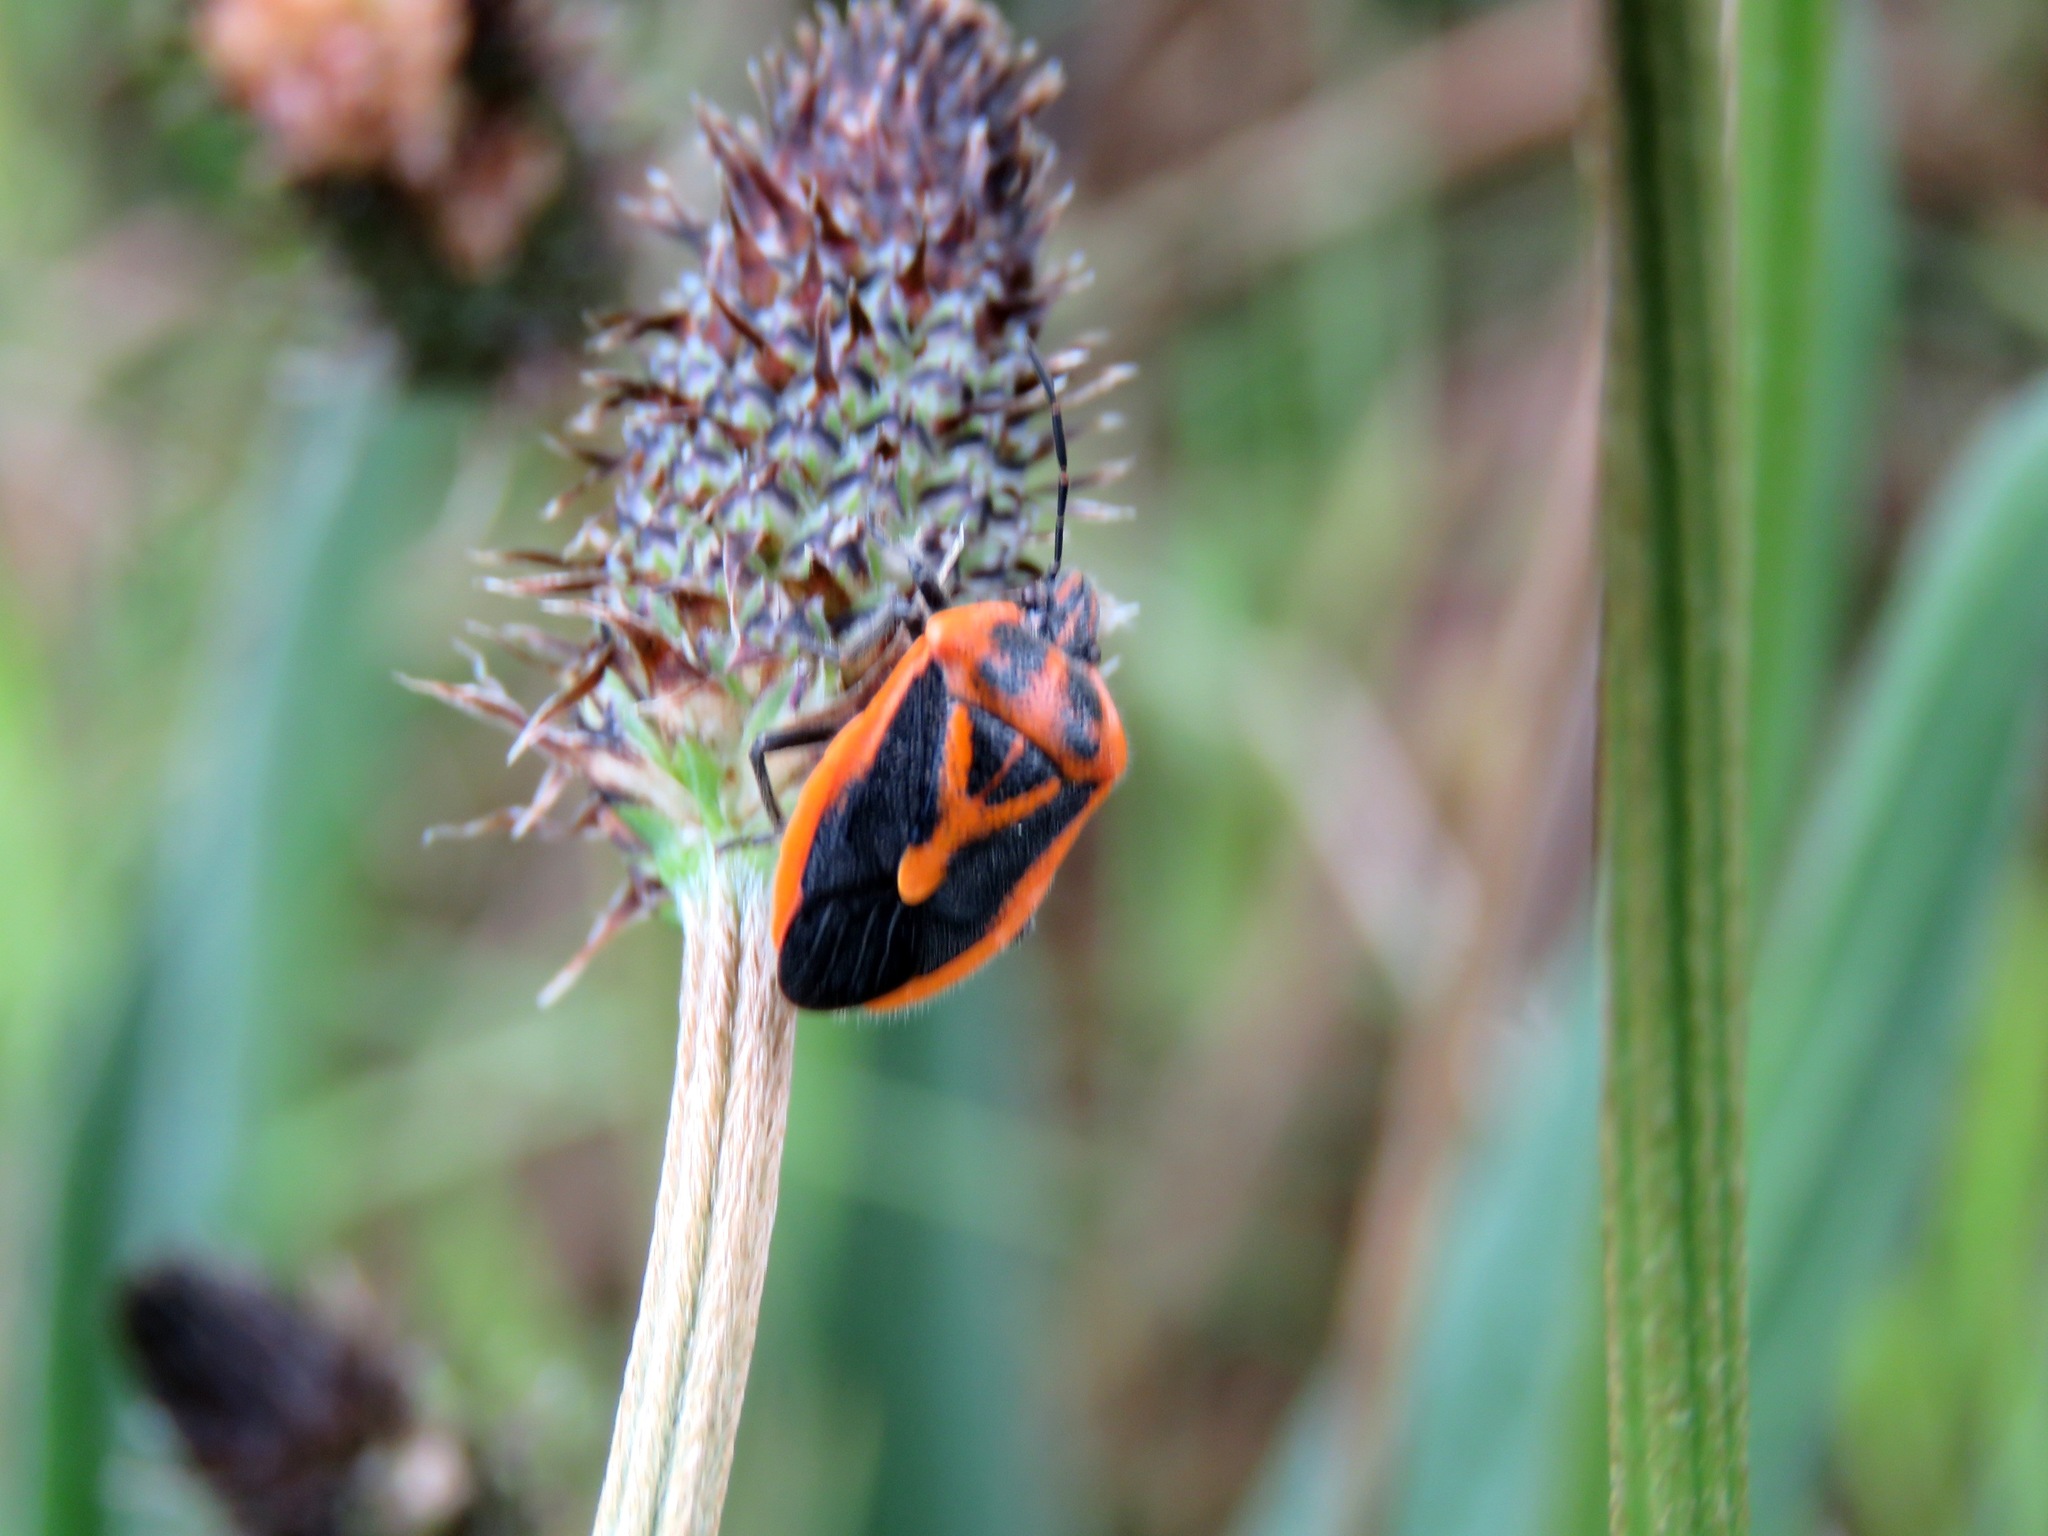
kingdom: Animalia
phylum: Arthropoda
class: Insecta
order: Hemiptera
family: Pentatomidae
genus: Agonoscelis
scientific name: Agonoscelis rutila
